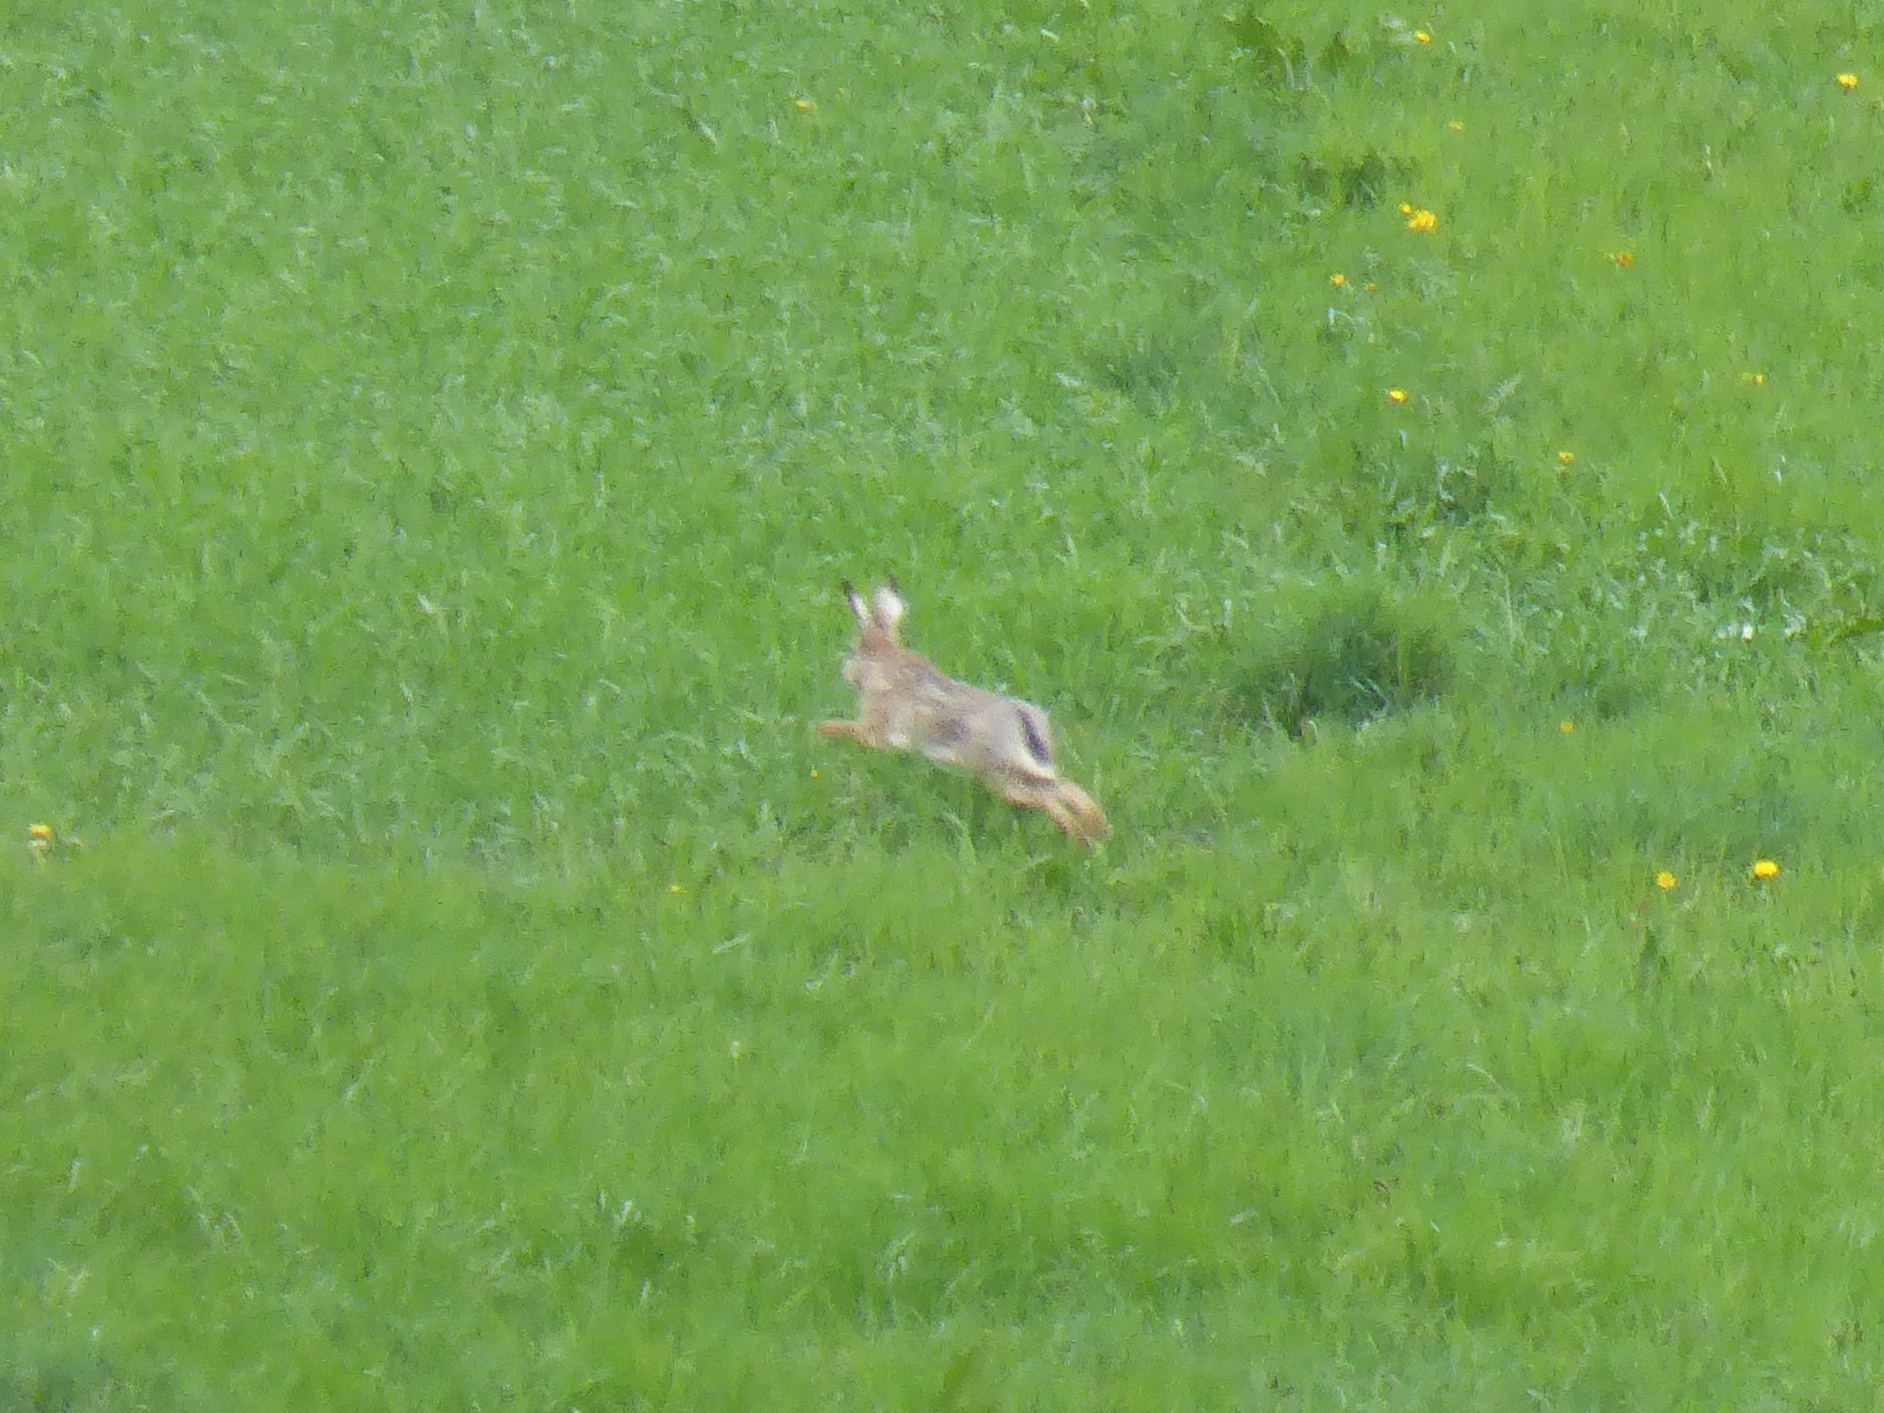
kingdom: Animalia
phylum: Chordata
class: Mammalia
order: Lagomorpha
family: Leporidae
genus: Lepus
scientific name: Lepus europaeus
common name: European hare
